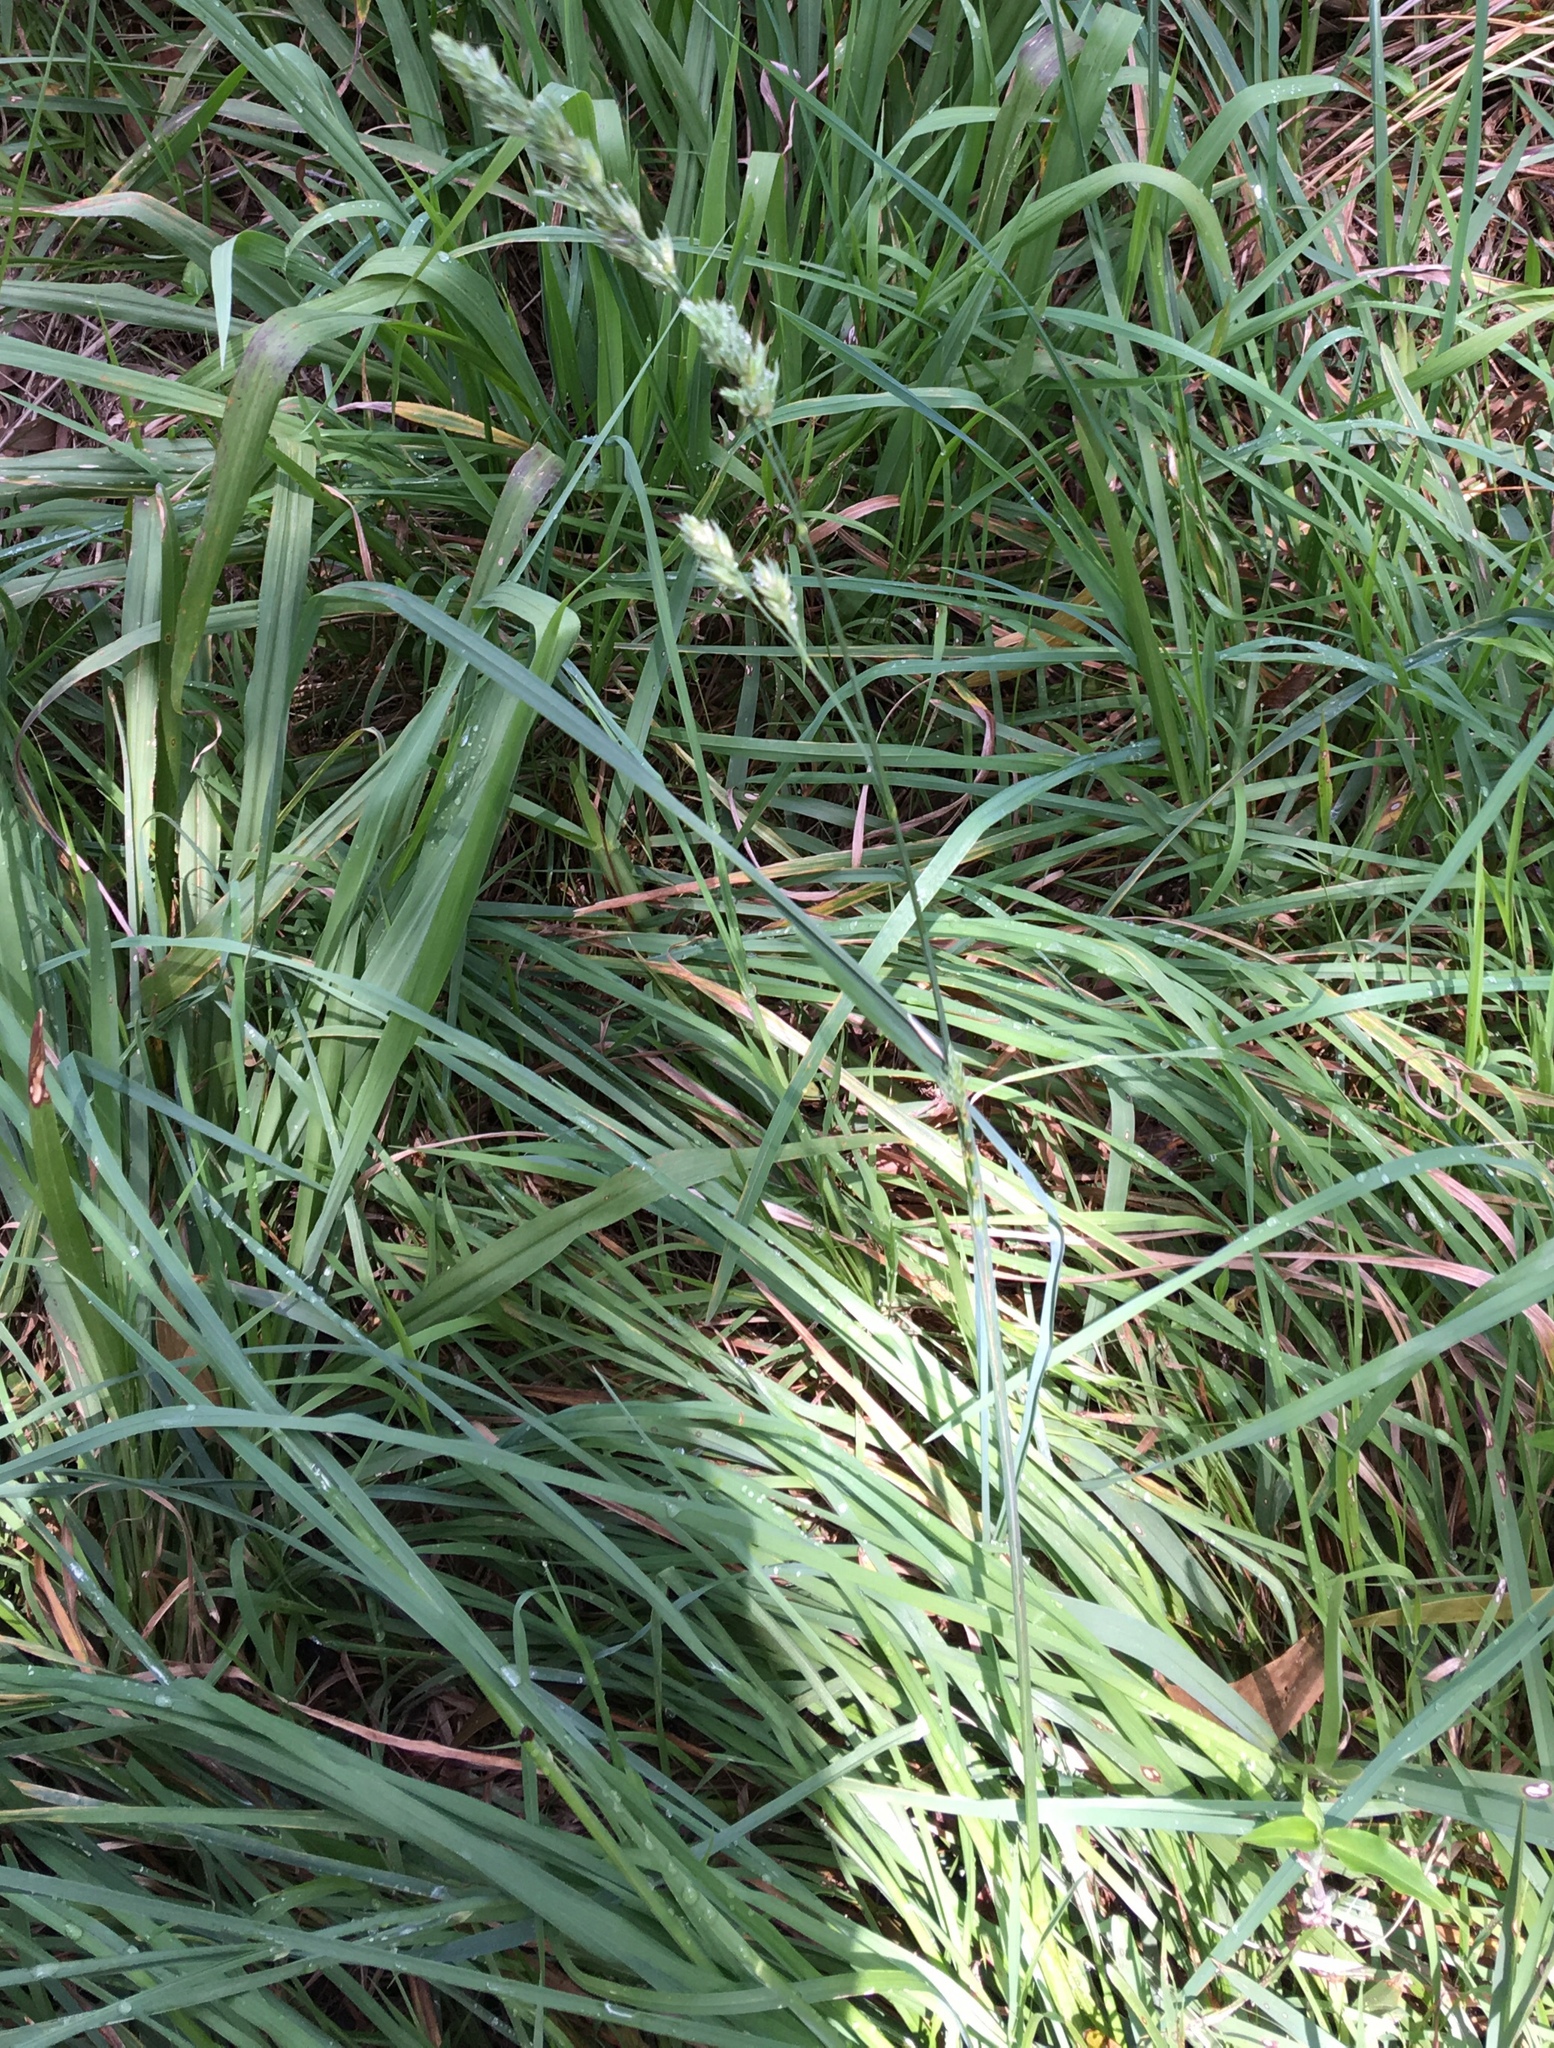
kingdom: Plantae
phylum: Tracheophyta
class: Liliopsida
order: Poales
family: Poaceae
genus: Dactylis
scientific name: Dactylis glomerata
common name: Orchardgrass
